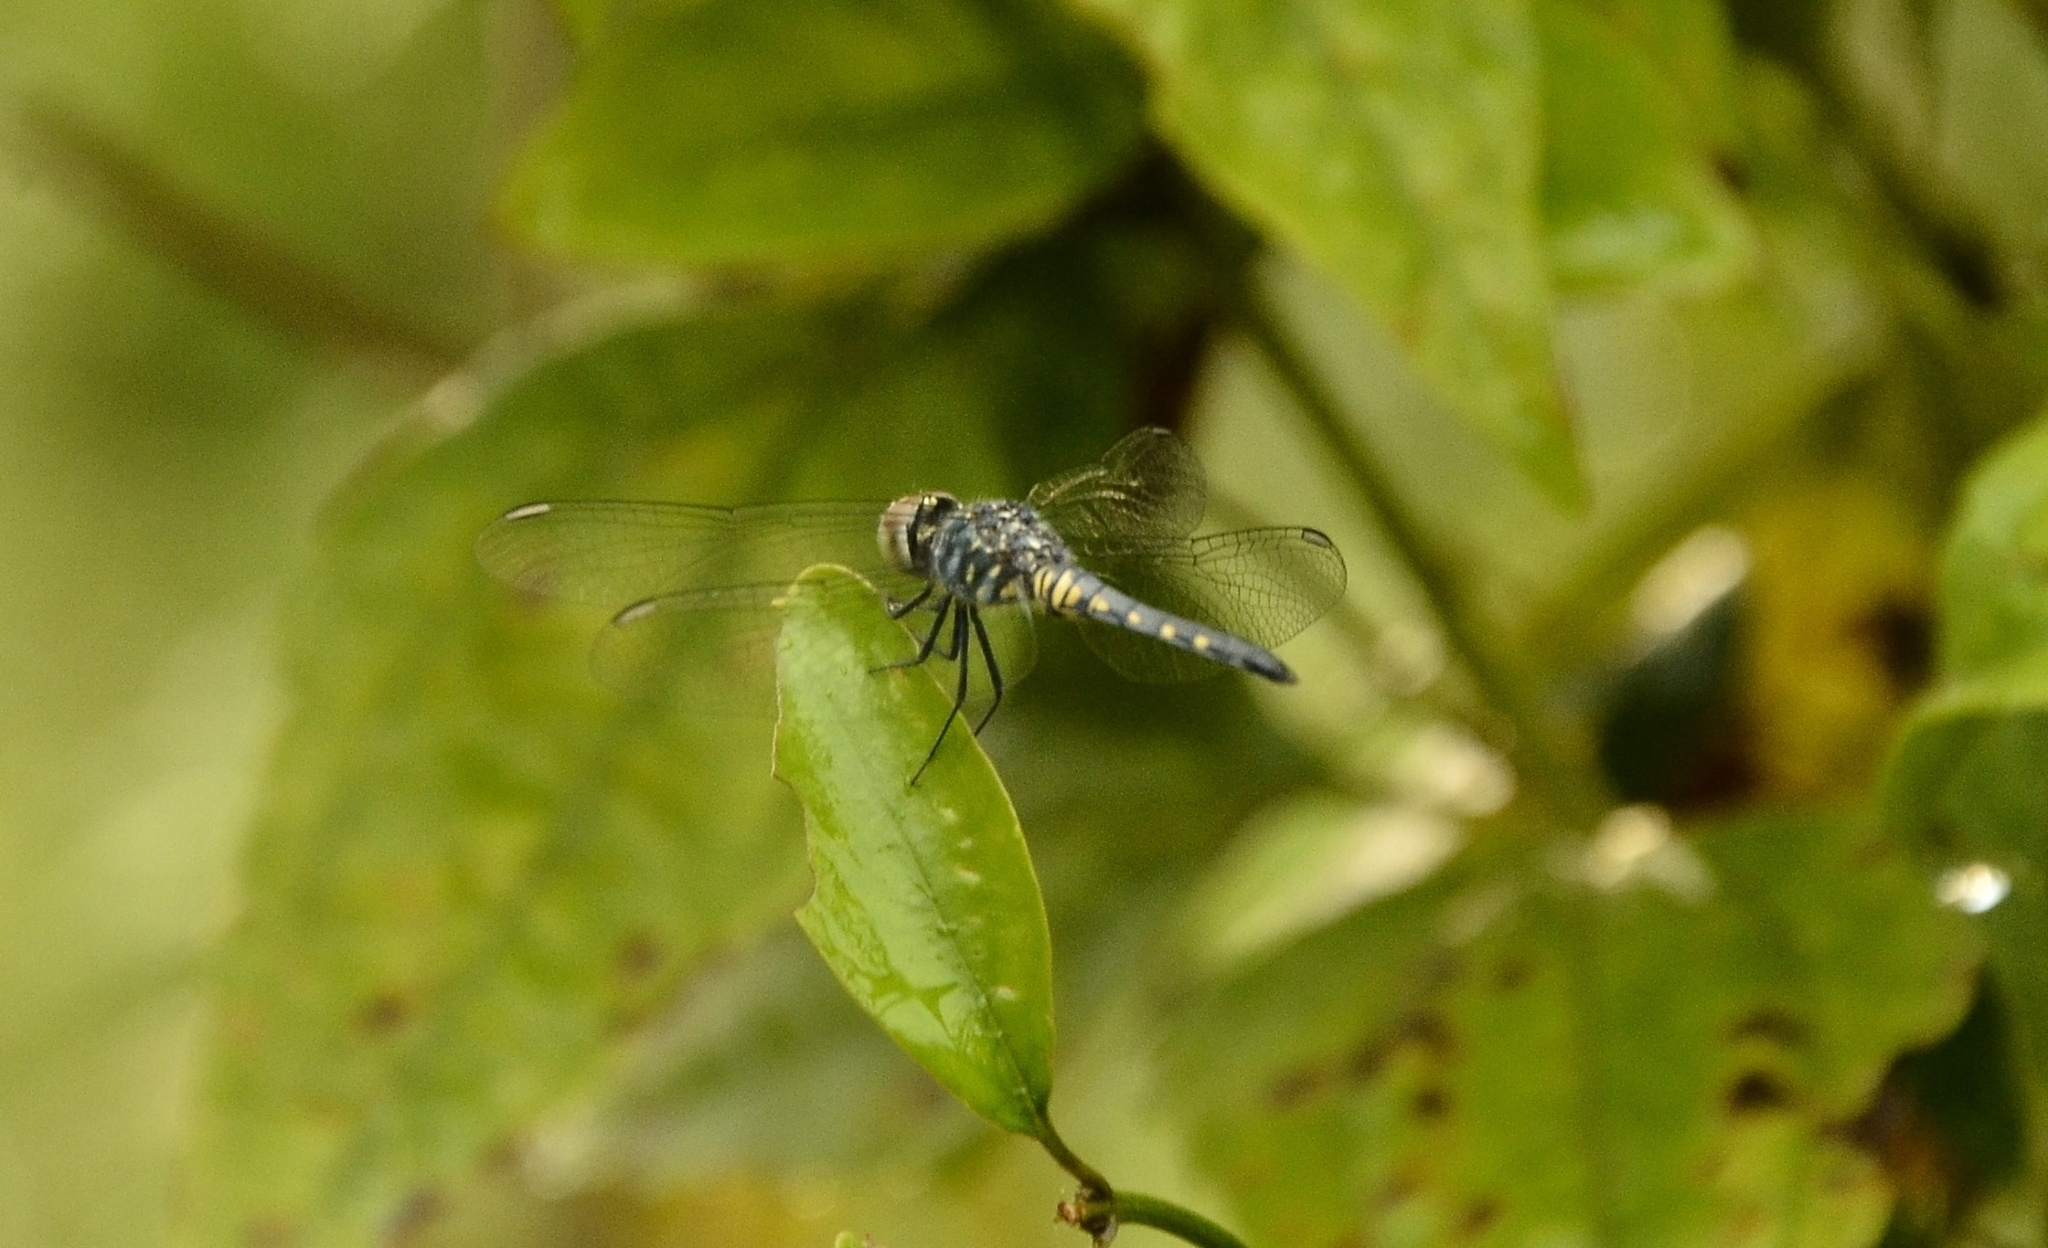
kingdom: Animalia
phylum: Arthropoda
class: Insecta
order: Odonata
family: Libellulidae
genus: Brachydiplax
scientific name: Brachydiplax sobrina
